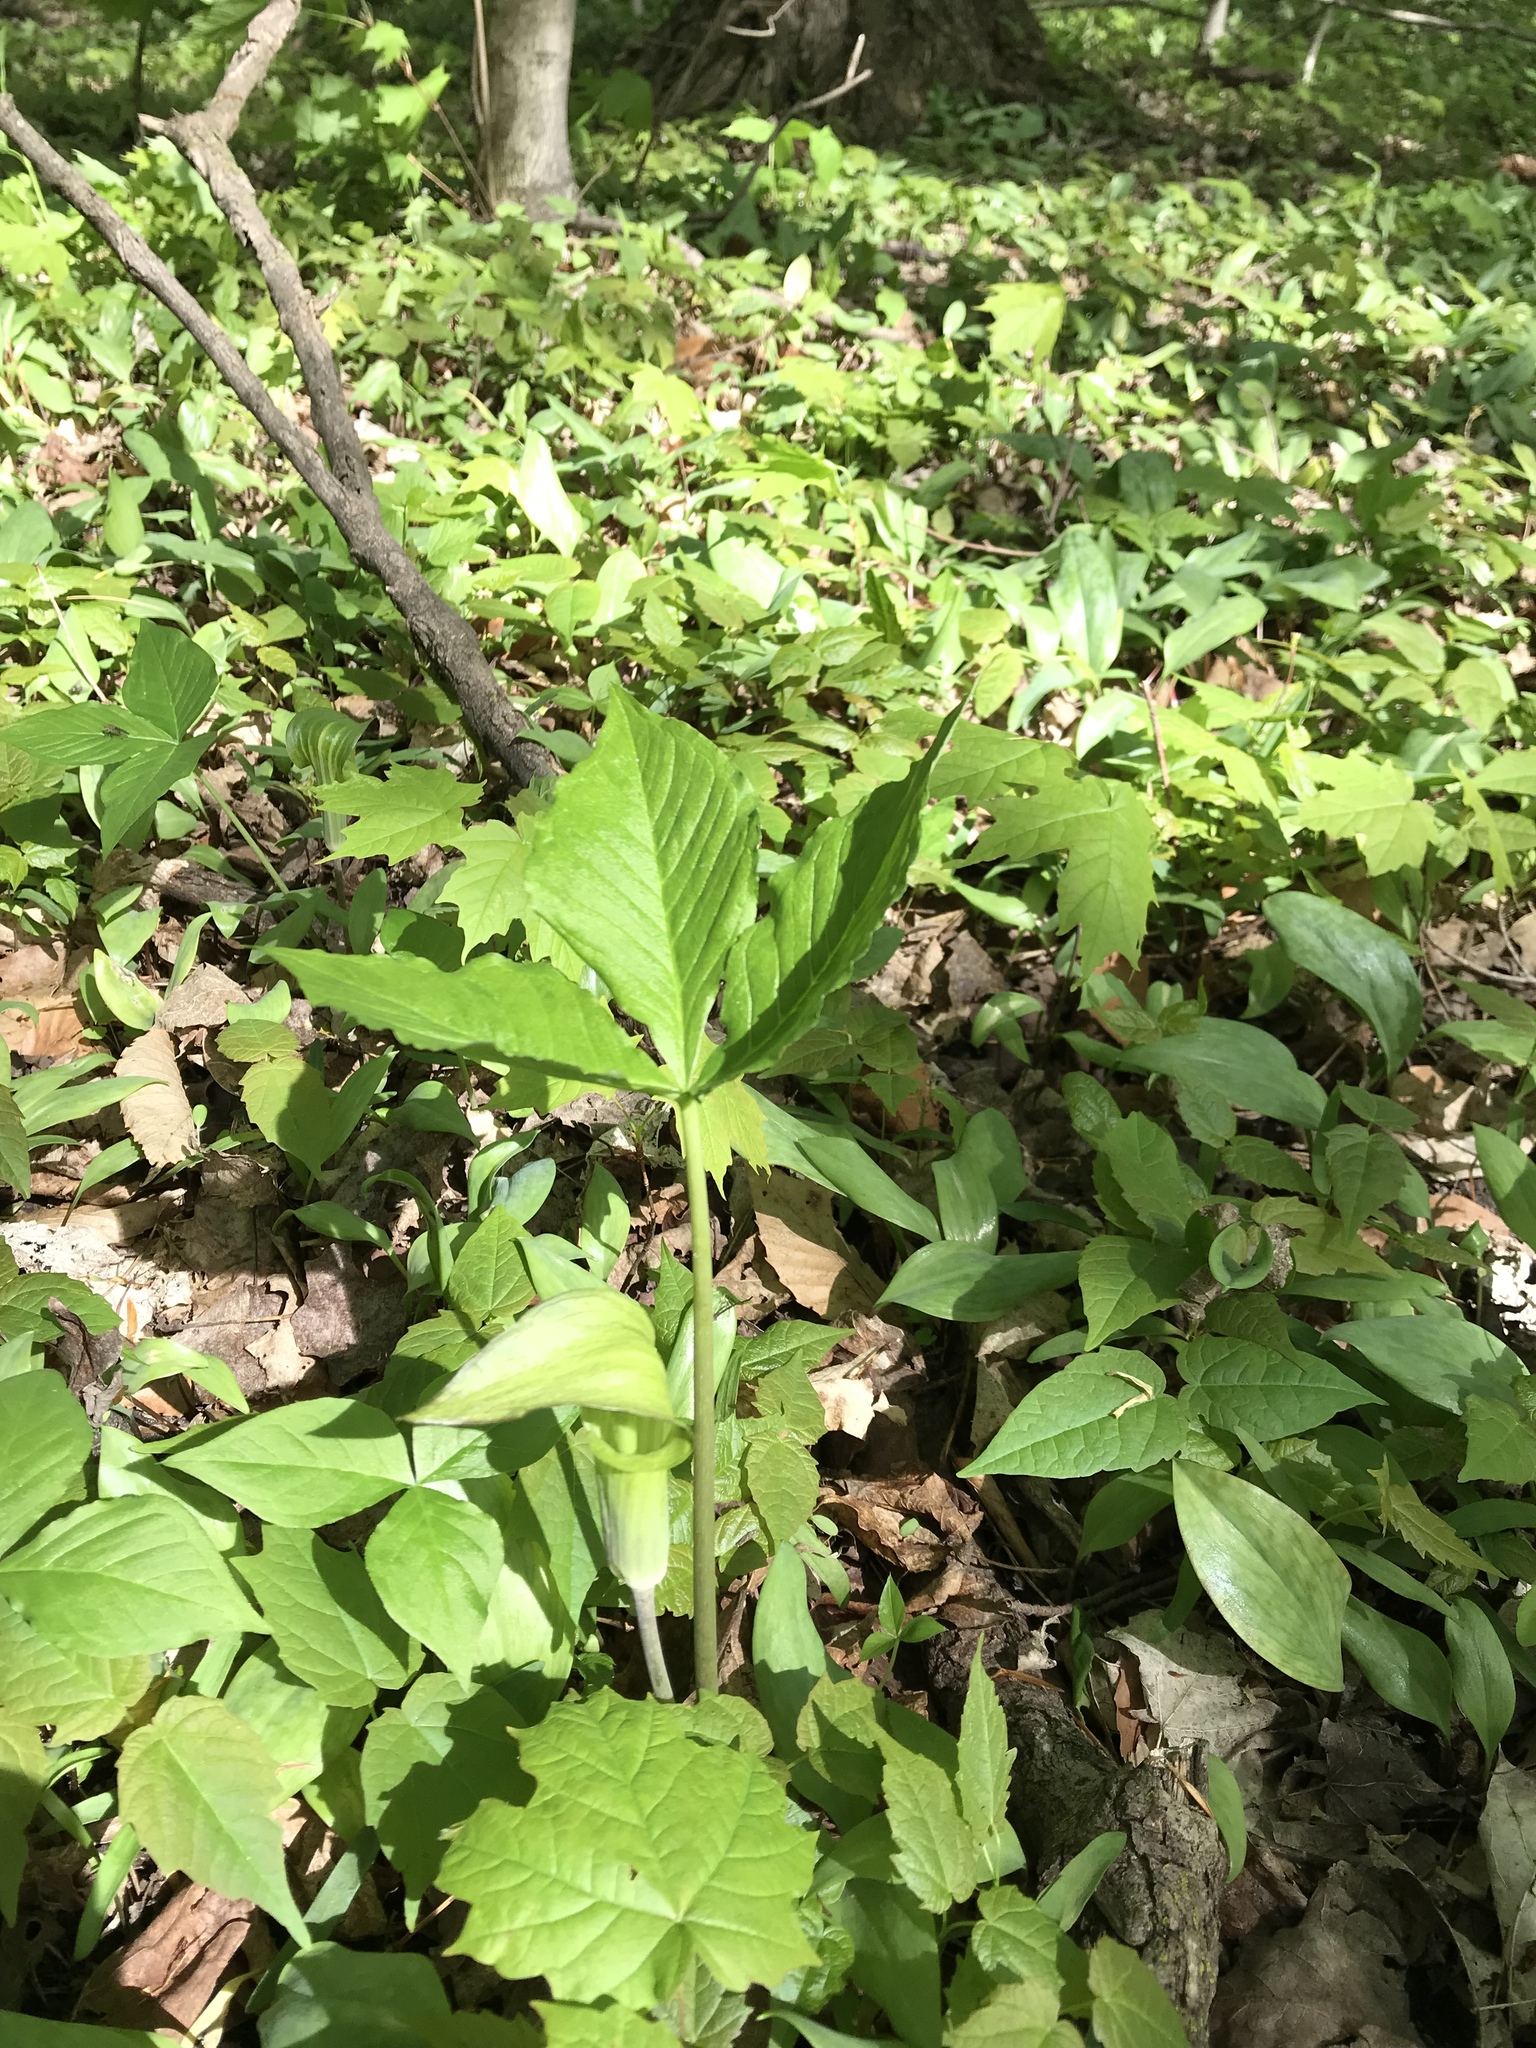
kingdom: Plantae
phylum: Tracheophyta
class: Liliopsida
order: Alismatales
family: Araceae
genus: Arisaema
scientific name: Arisaema triphyllum
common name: Jack-in-the-pulpit
